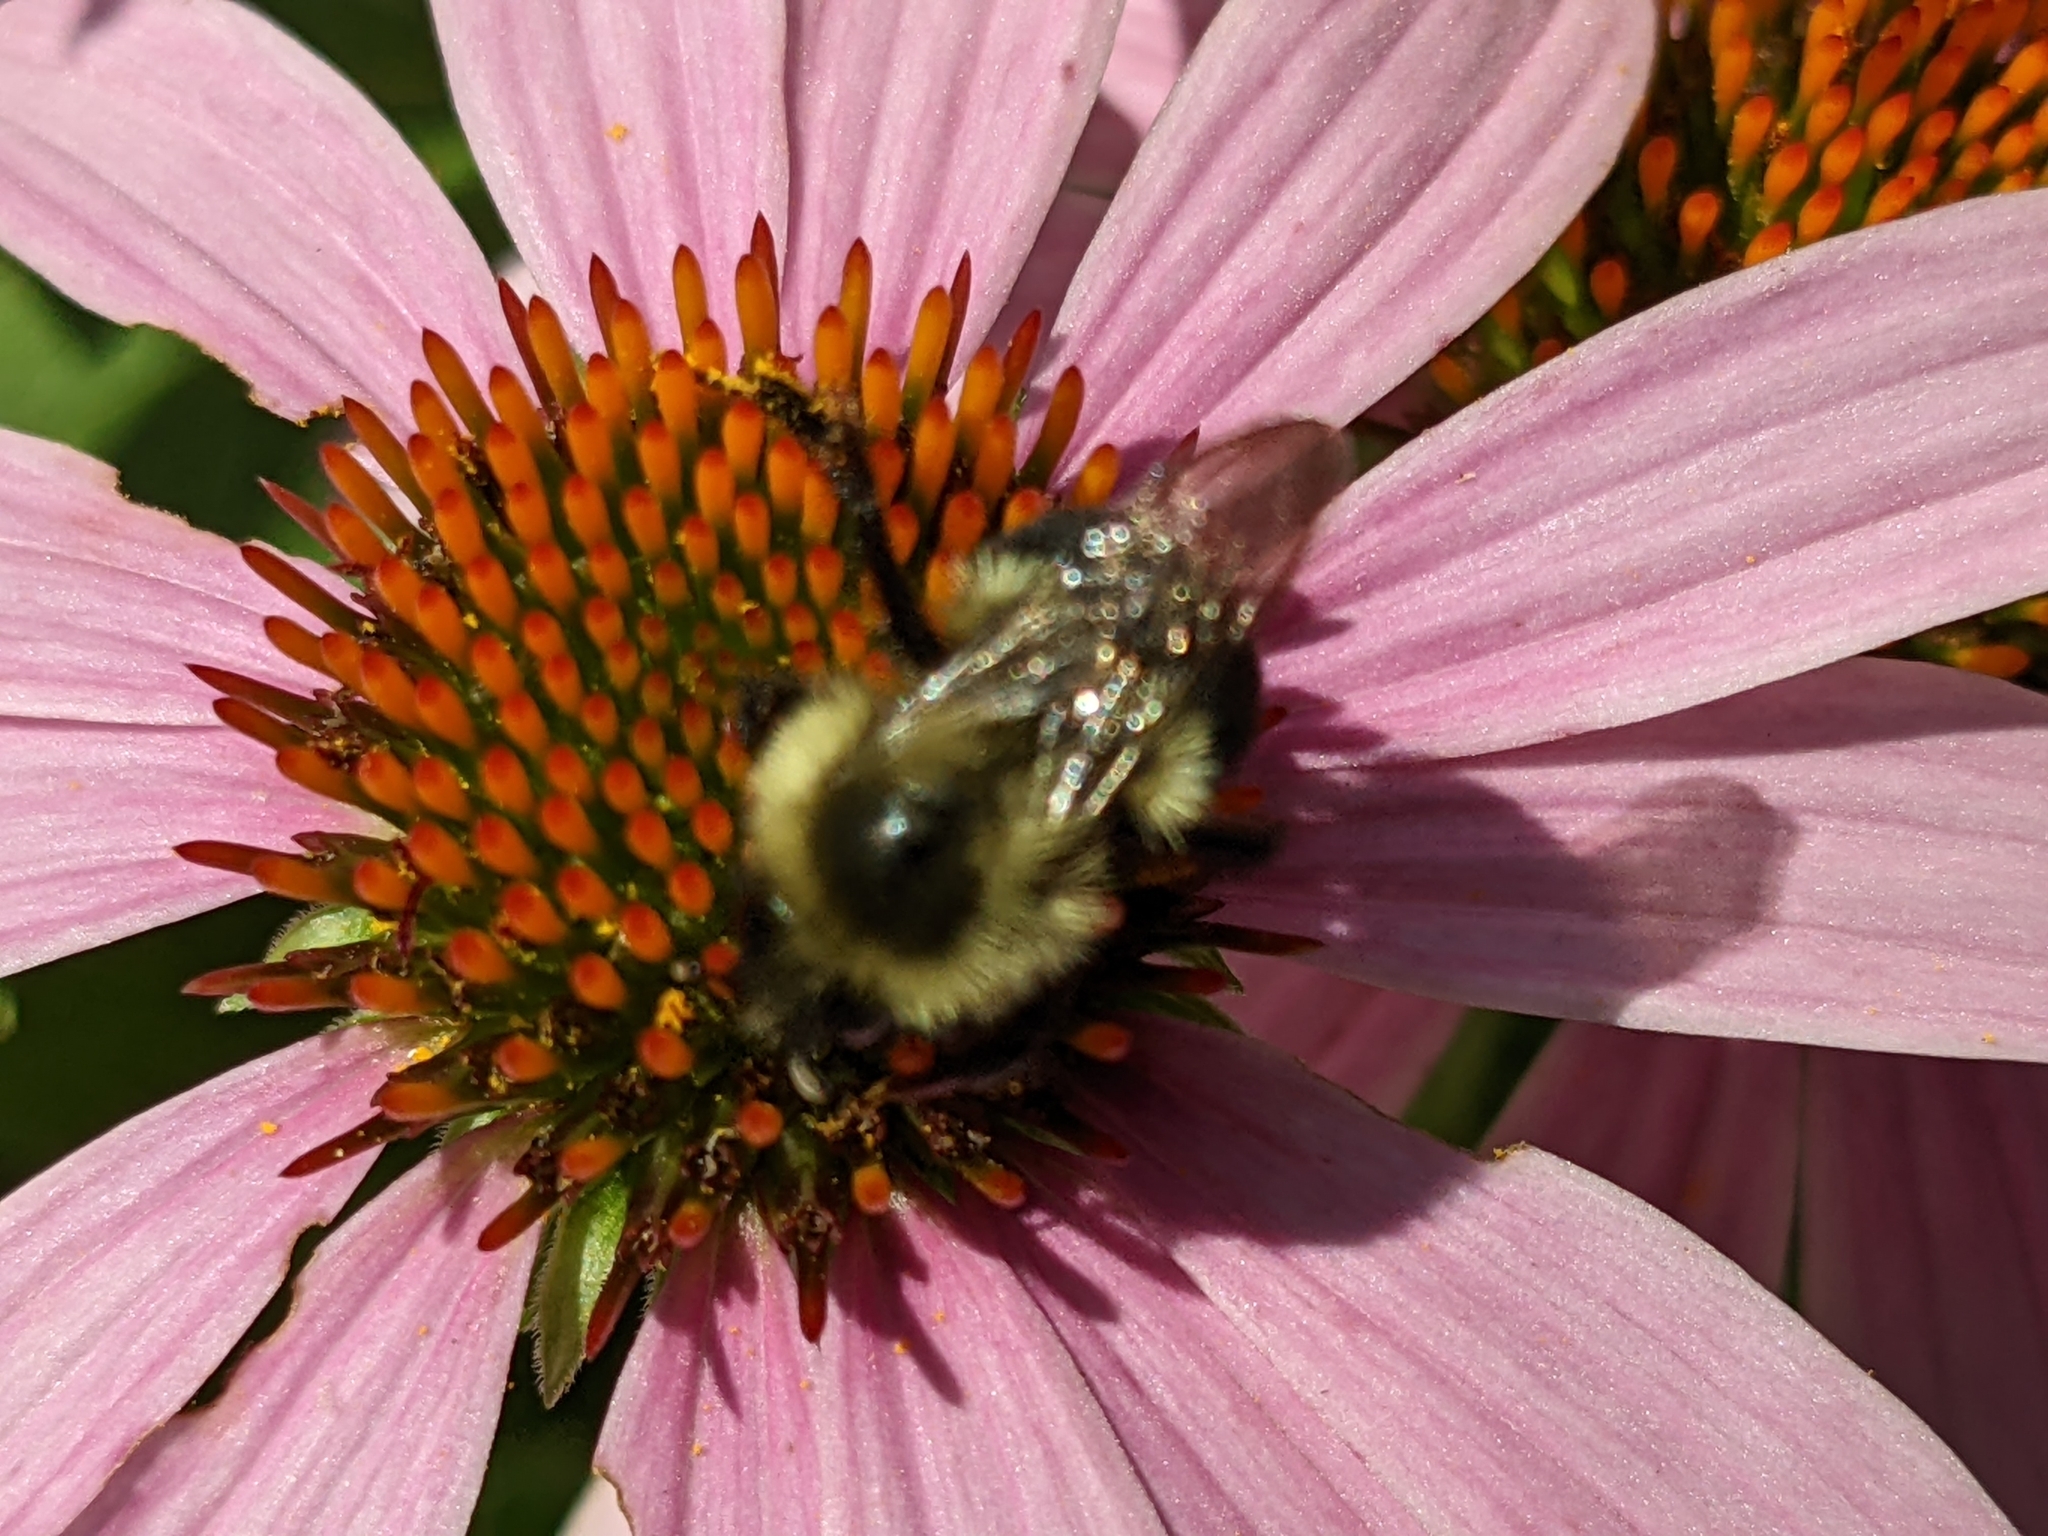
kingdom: Animalia
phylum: Arthropoda
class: Insecta
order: Hymenoptera
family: Apidae
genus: Bombus
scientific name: Bombus impatiens
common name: Common eastern bumble bee
